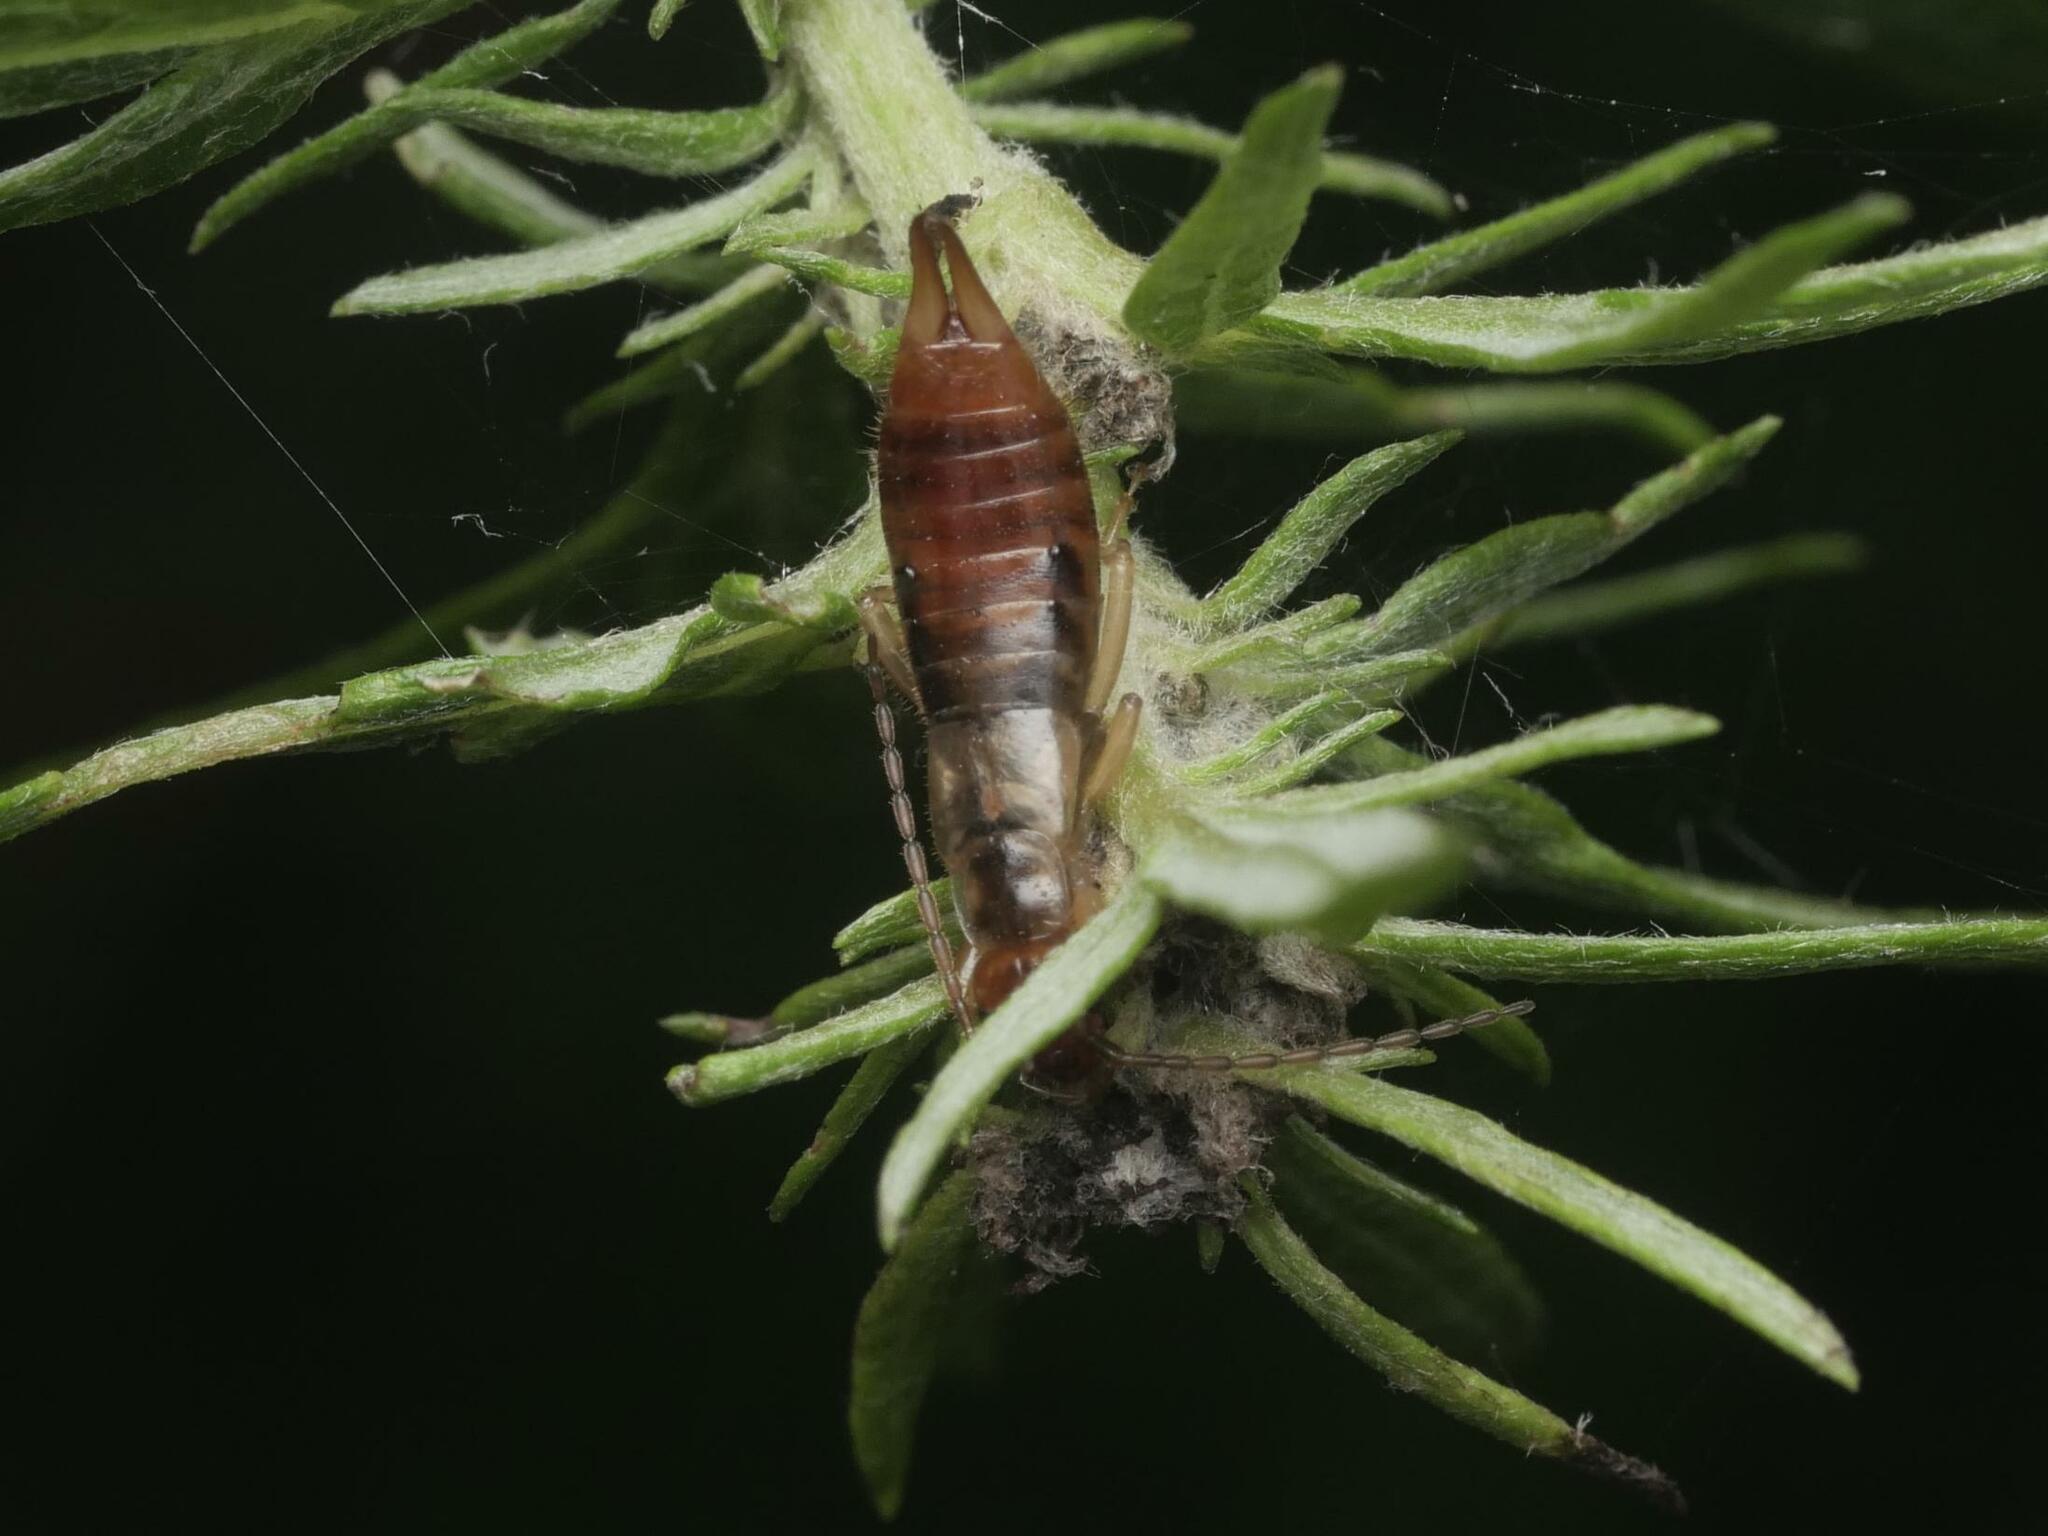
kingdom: Animalia
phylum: Arthropoda
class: Insecta
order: Dermaptera
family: Forficulidae
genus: Apterygida
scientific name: Apterygida albipennis
